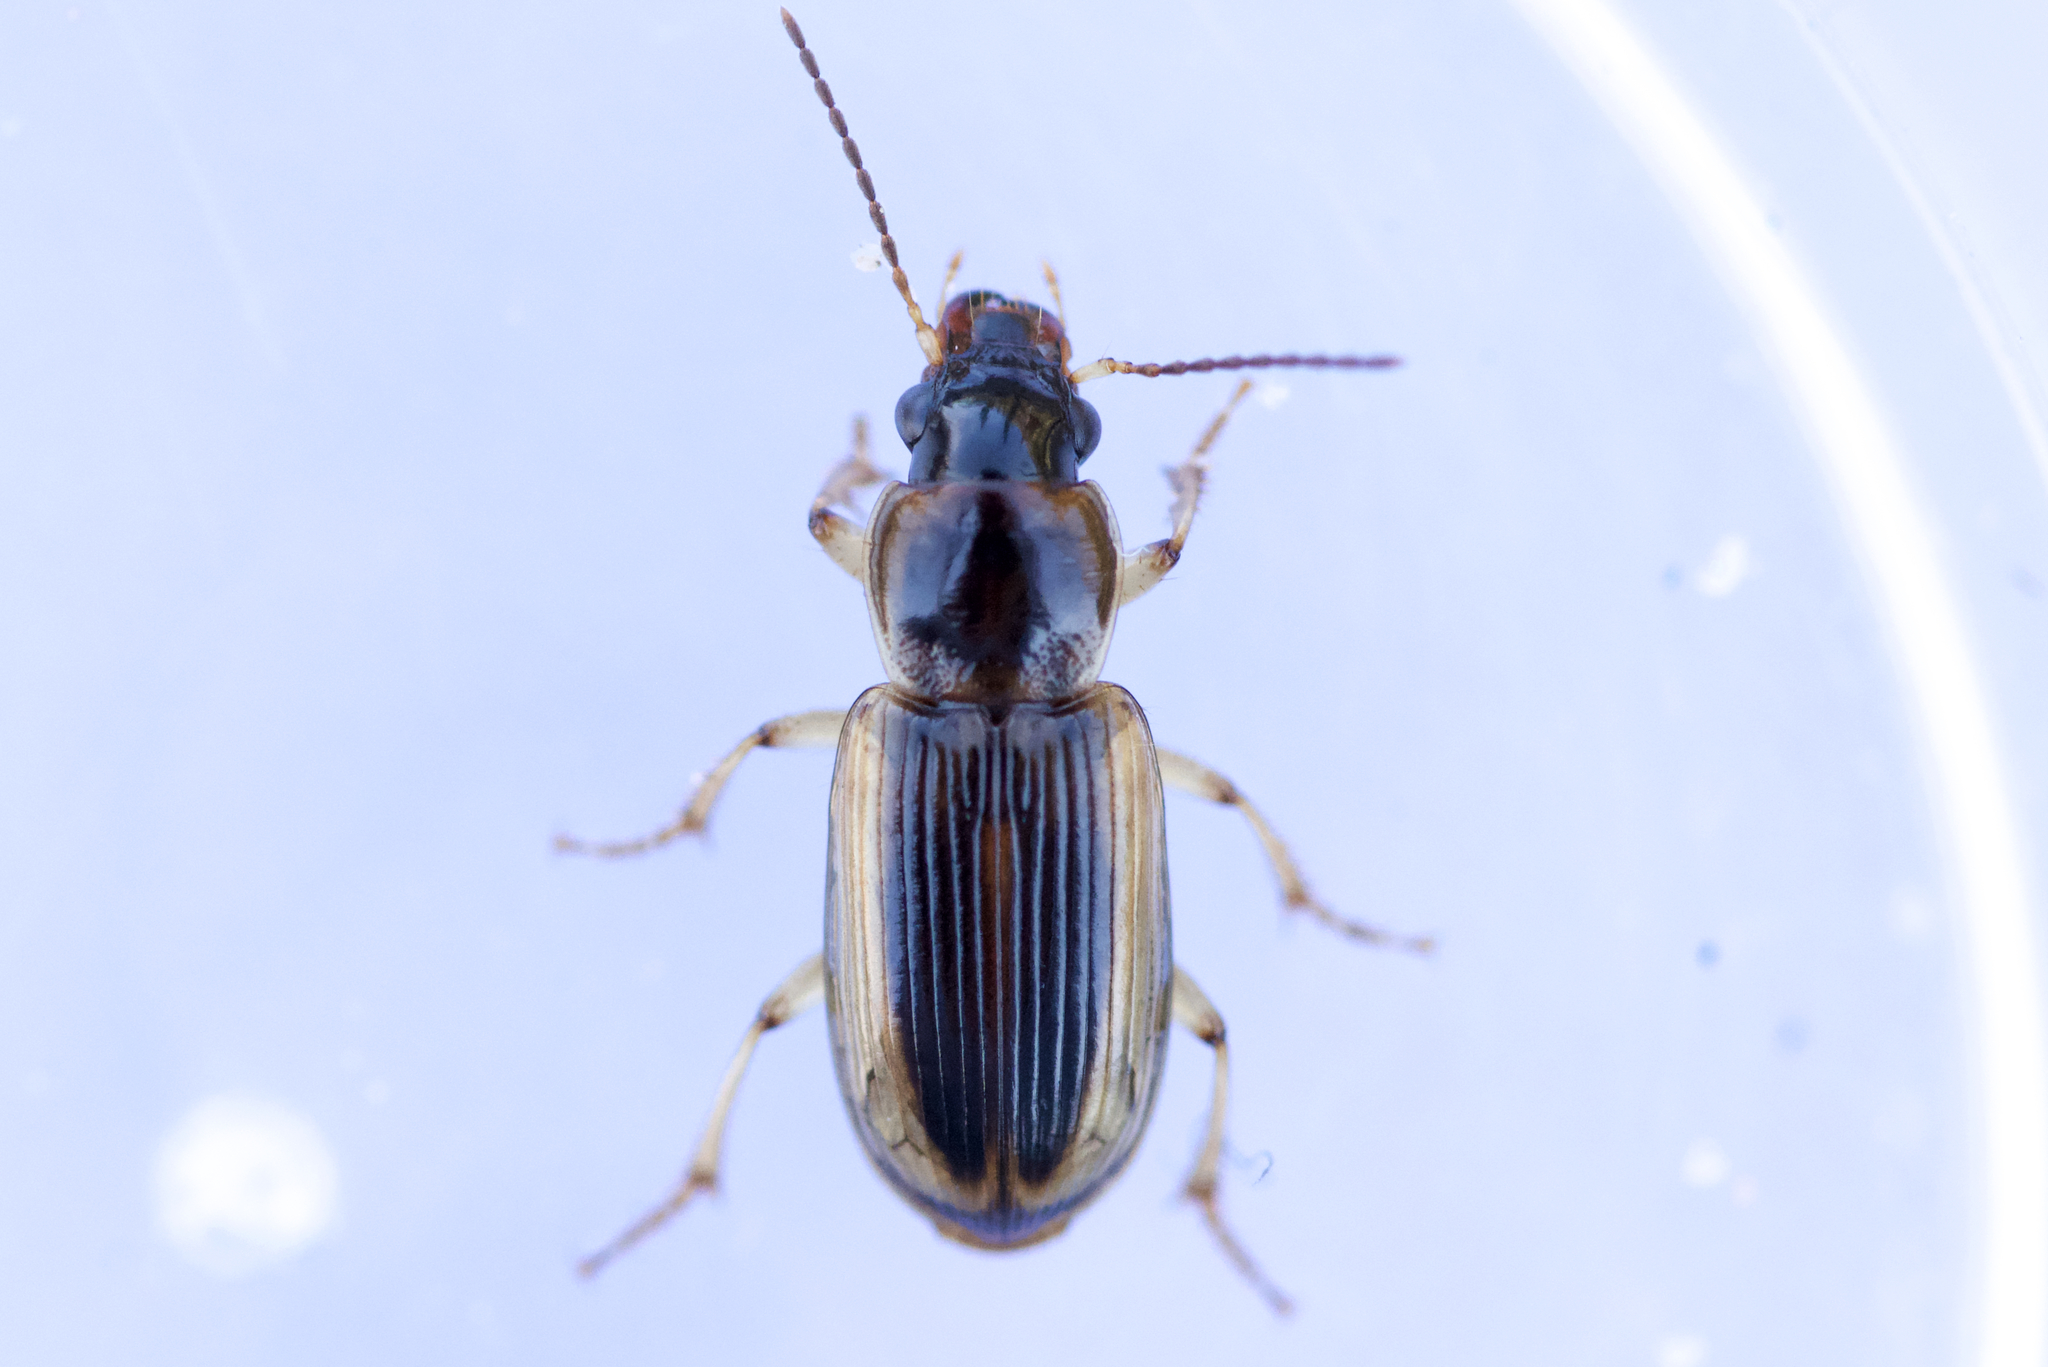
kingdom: Animalia
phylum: Arthropoda
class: Insecta
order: Coleoptera
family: Carabidae
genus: Stenolophus
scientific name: Stenolophus comma
